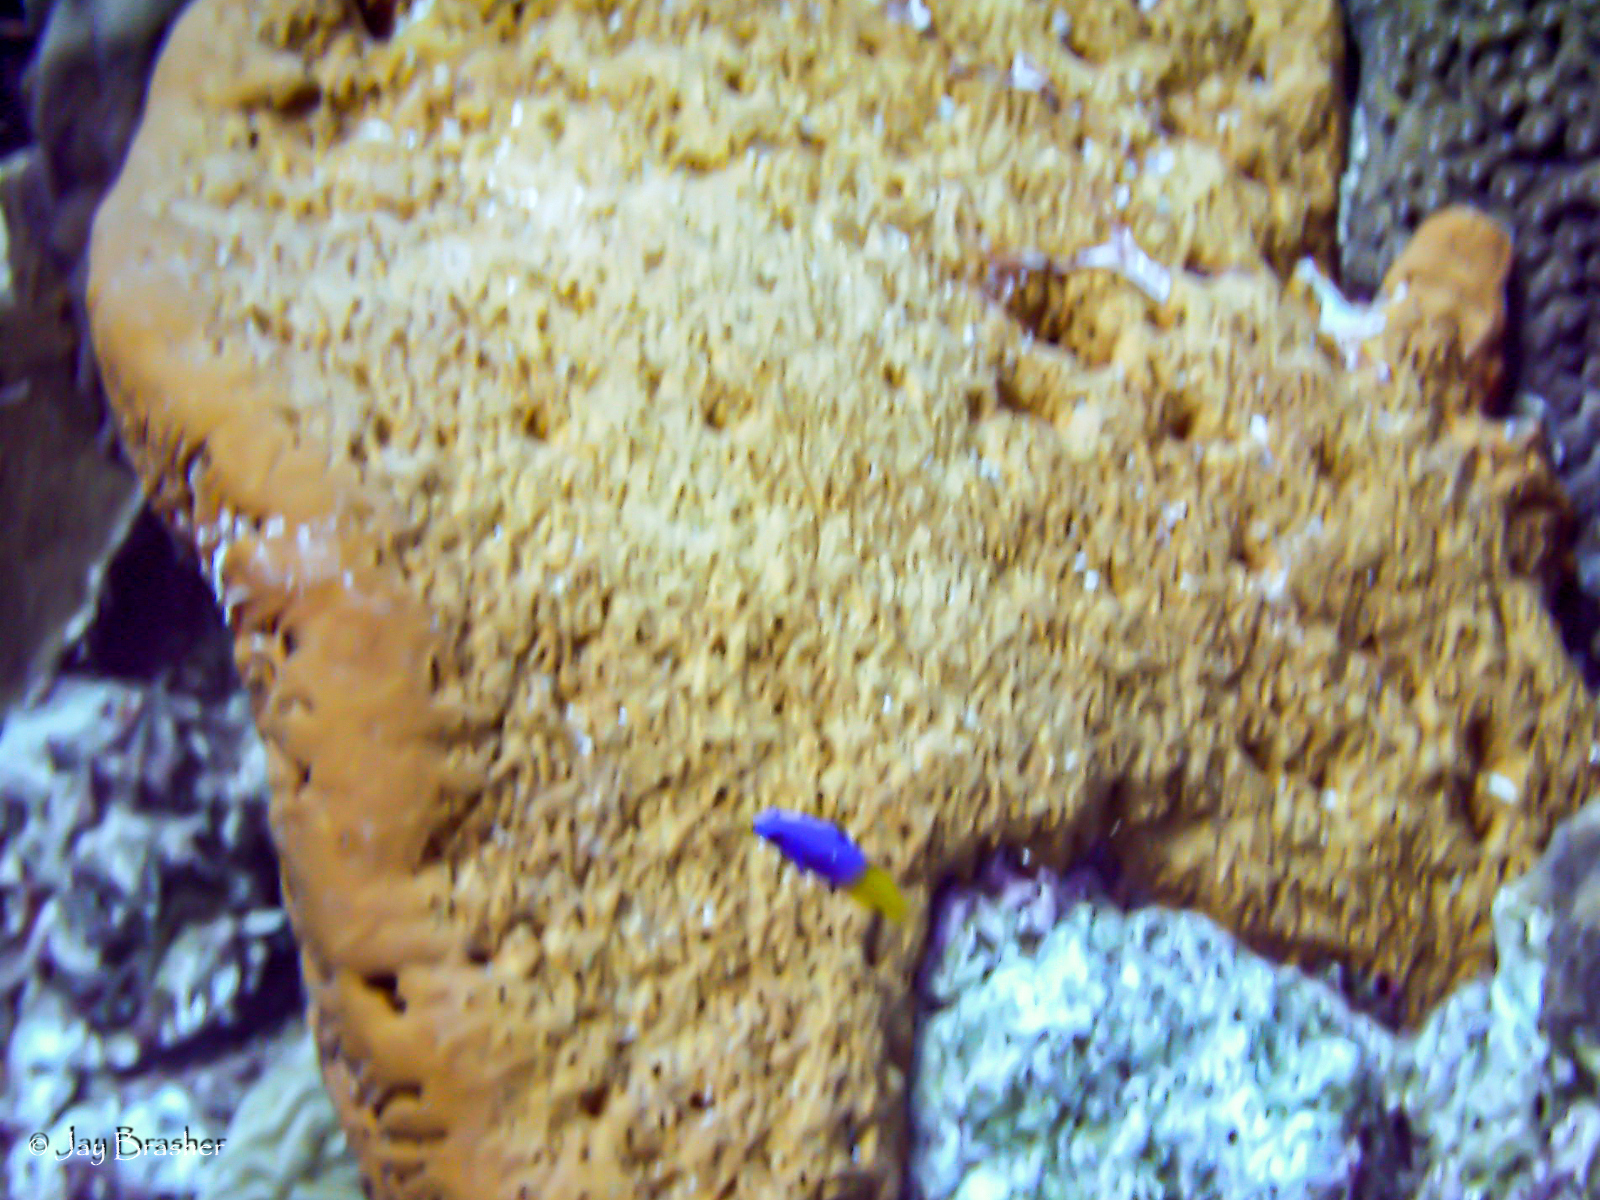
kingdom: Animalia
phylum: Chordata
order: Perciformes
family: Grammatidae
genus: Gramma
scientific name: Gramma loreto
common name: Fairy basslet
